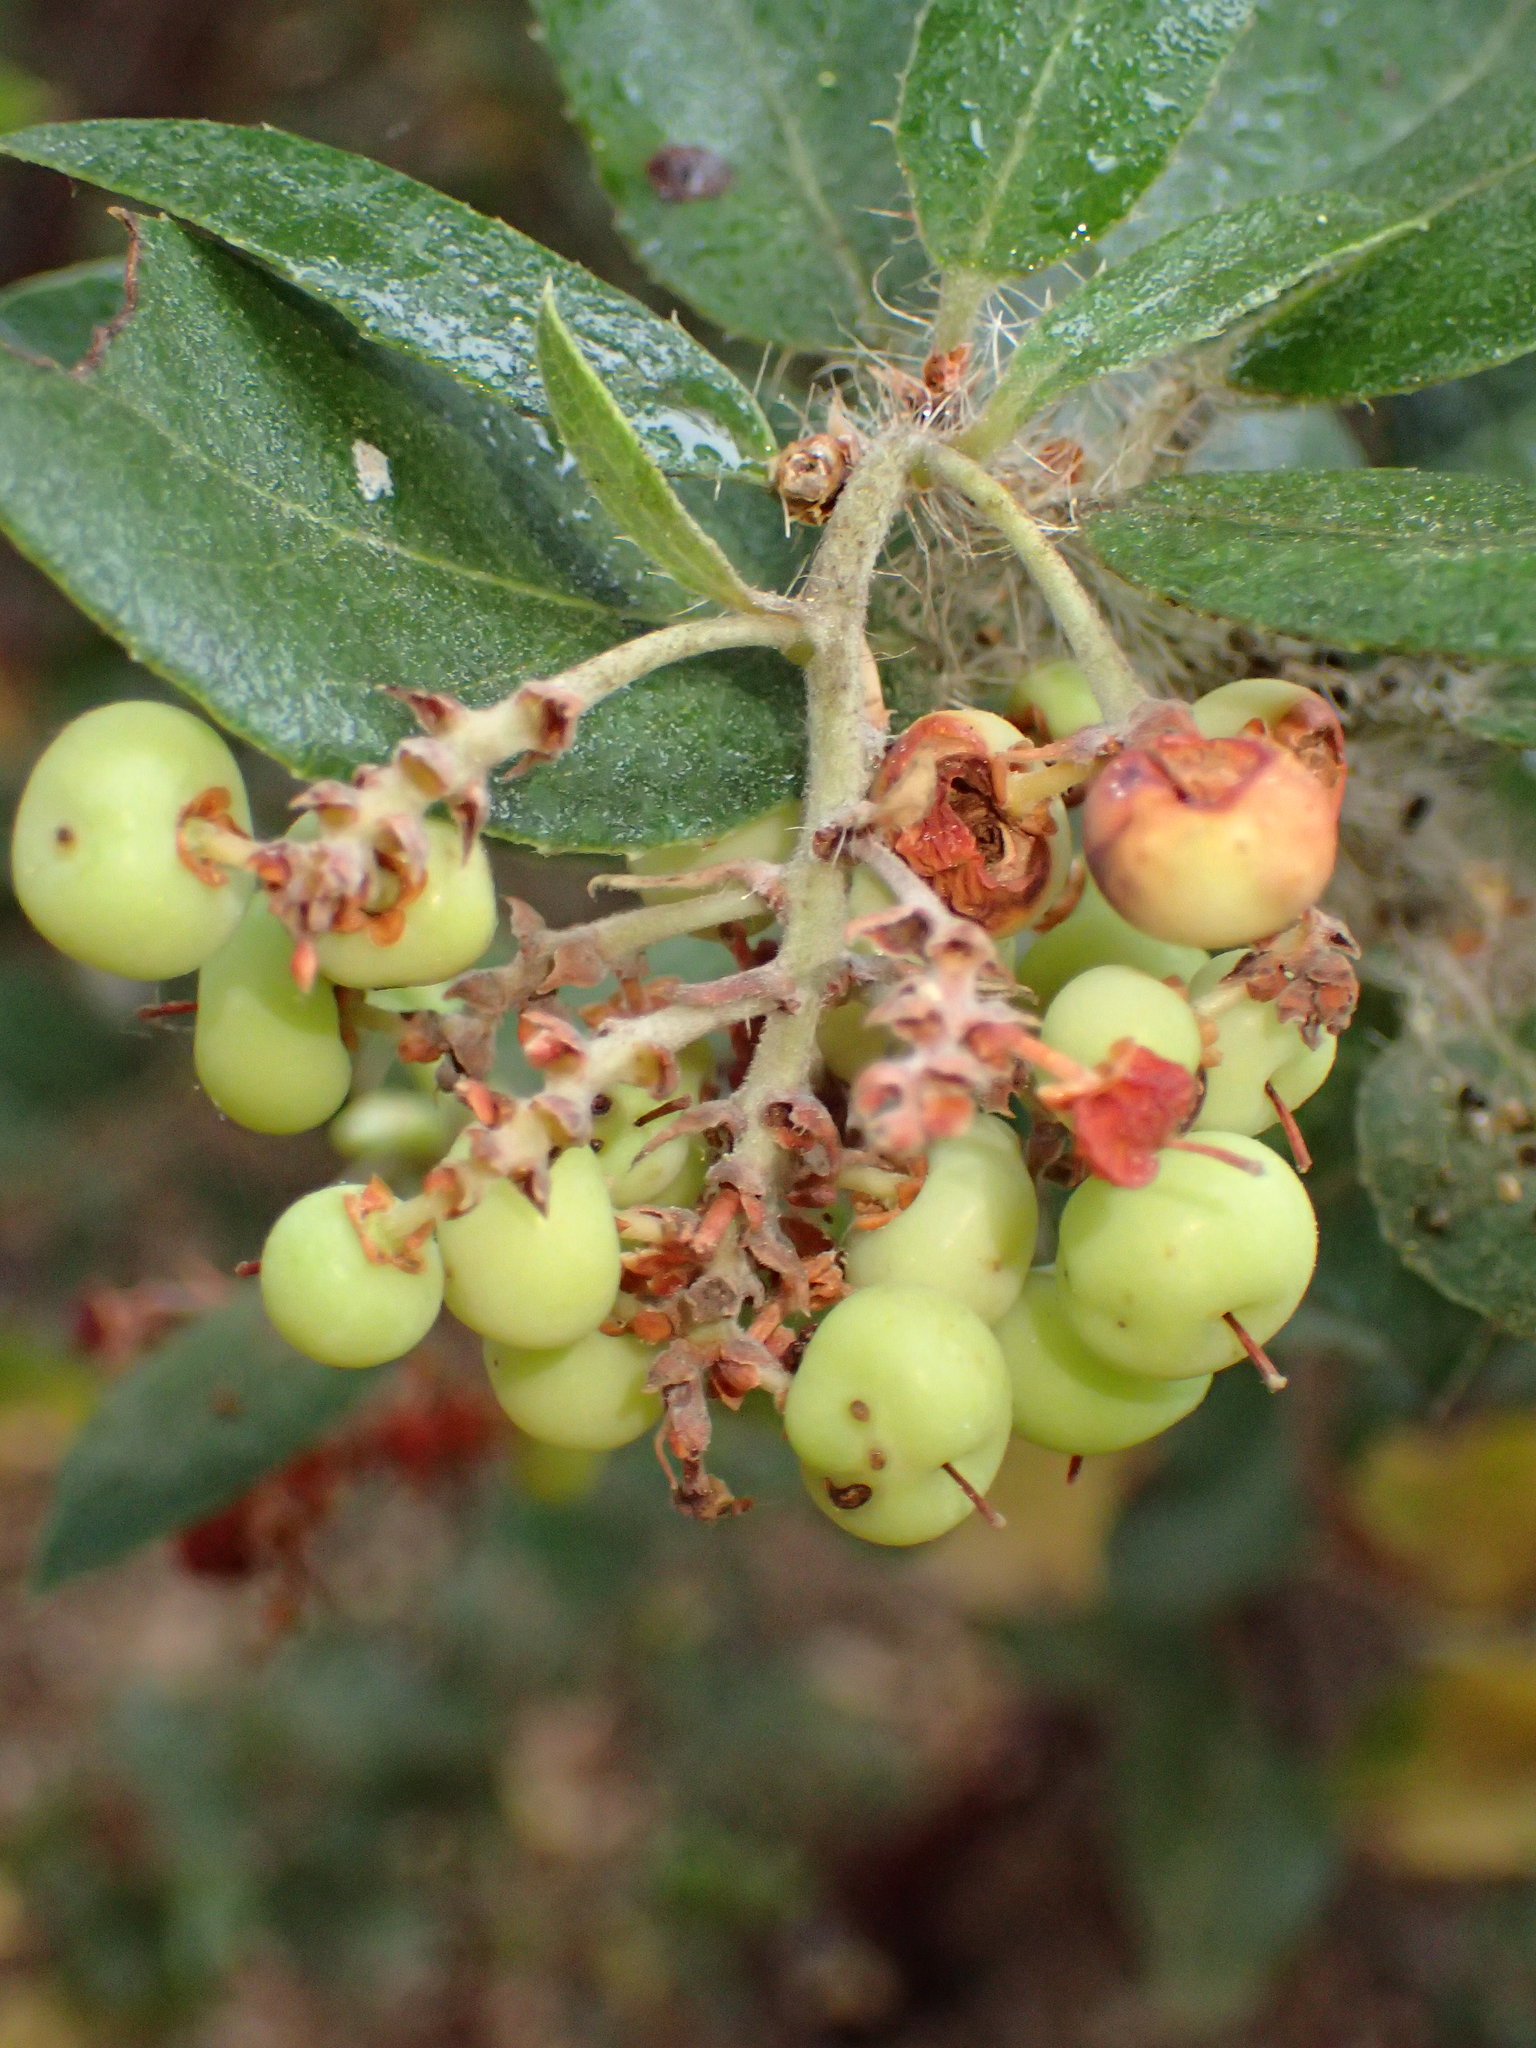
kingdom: Plantae
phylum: Tracheophyta
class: Magnoliopsida
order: Ericales
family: Ericaceae
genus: Arctostaphylos
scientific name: Arctostaphylos crustacea
